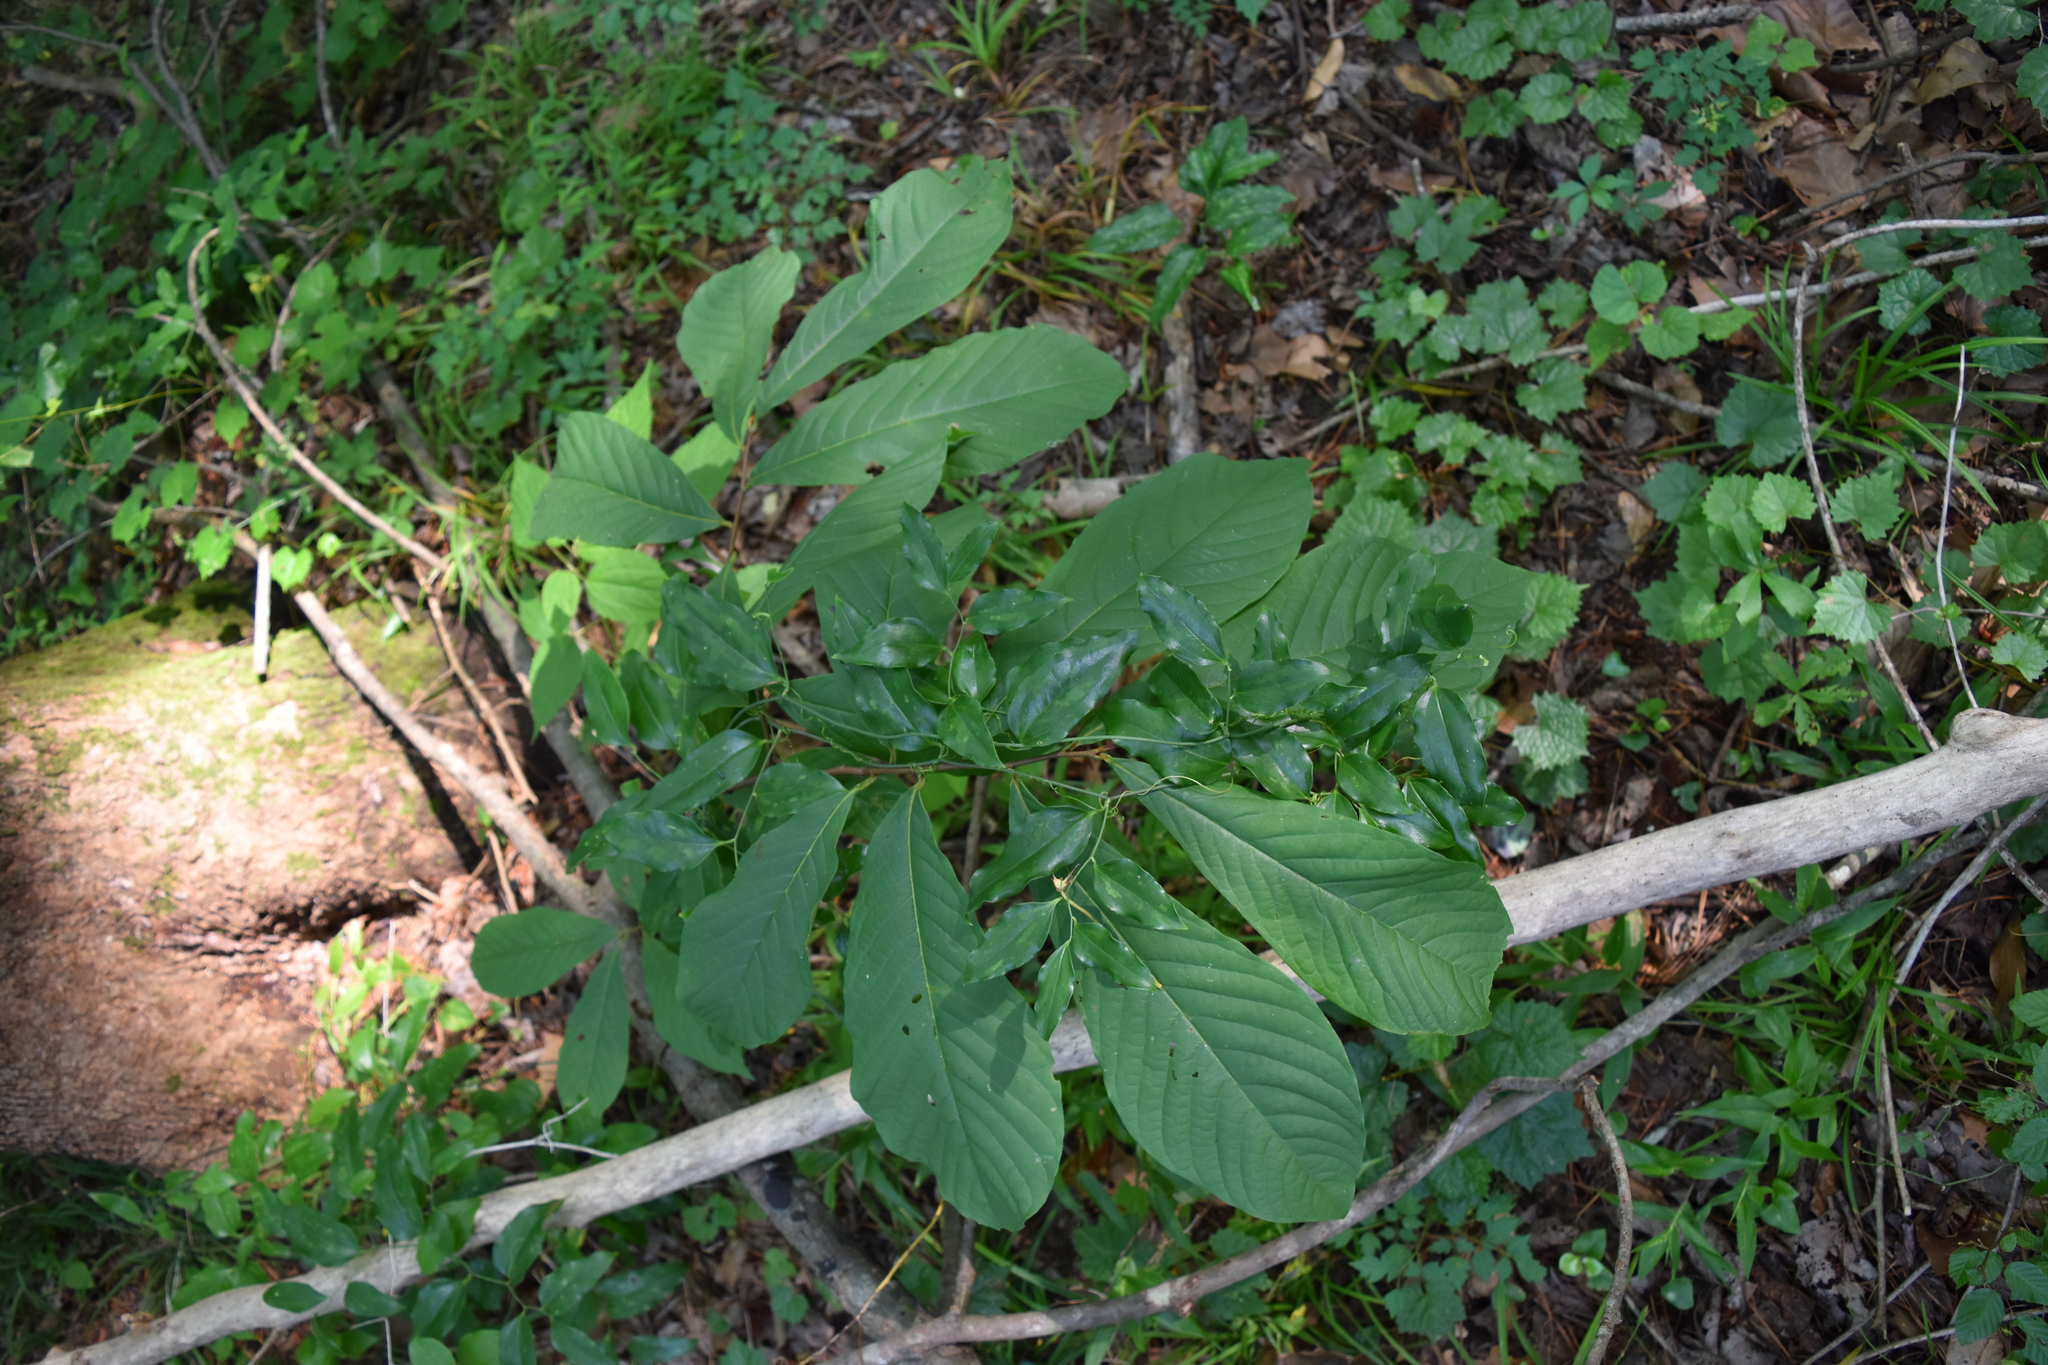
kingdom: Plantae
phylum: Tracheophyta
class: Magnoliopsida
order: Magnoliales
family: Annonaceae
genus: Asimina
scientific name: Asimina triloba
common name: Dog-banana
